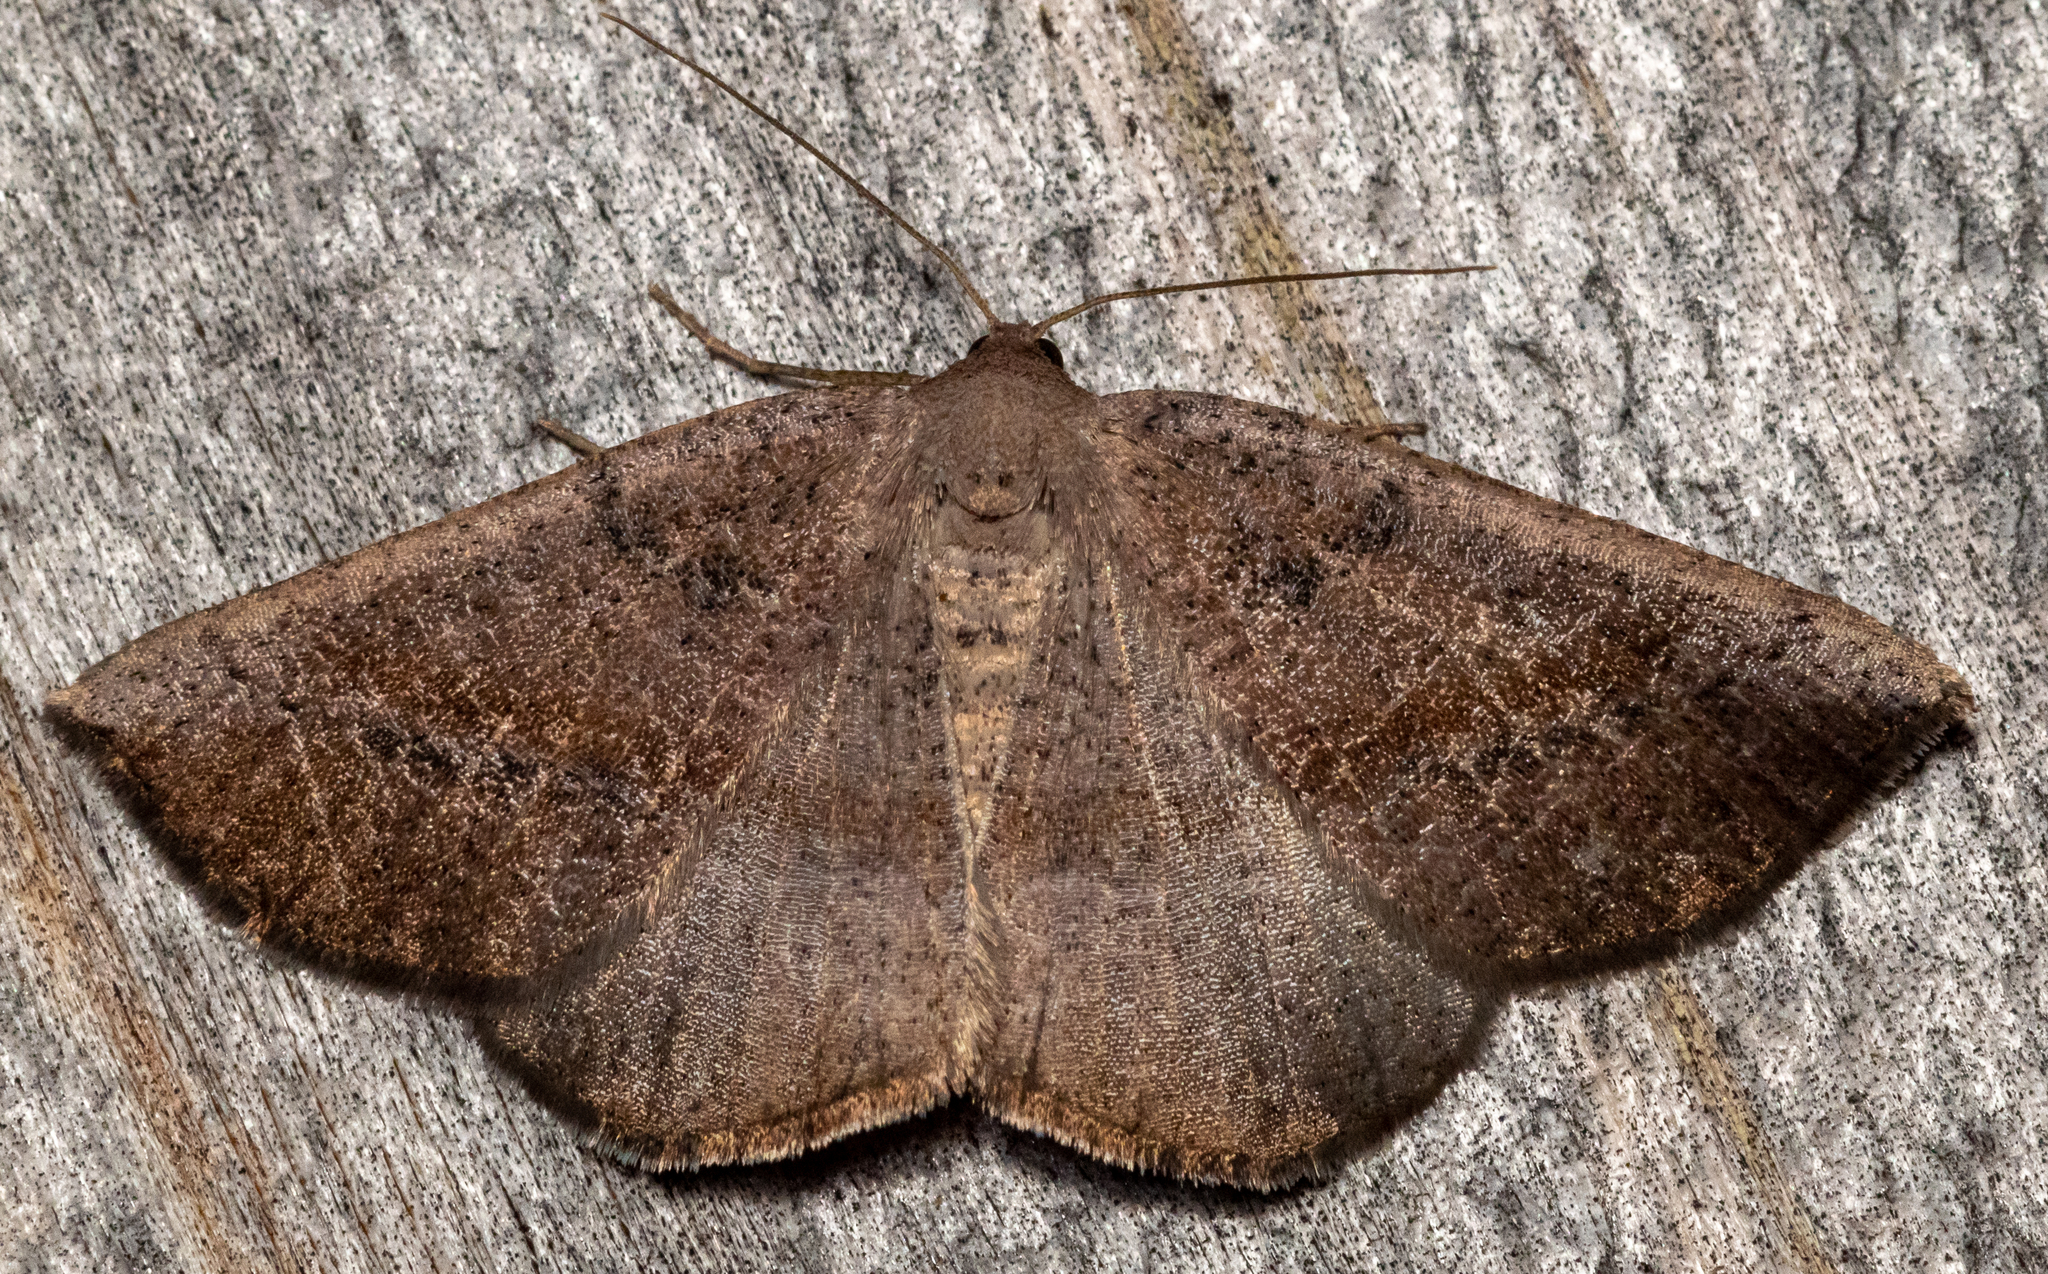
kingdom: Animalia
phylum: Arthropoda
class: Insecta
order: Lepidoptera
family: Geometridae
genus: Tacparia
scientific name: Tacparia atropunctata
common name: Northern pale alder
